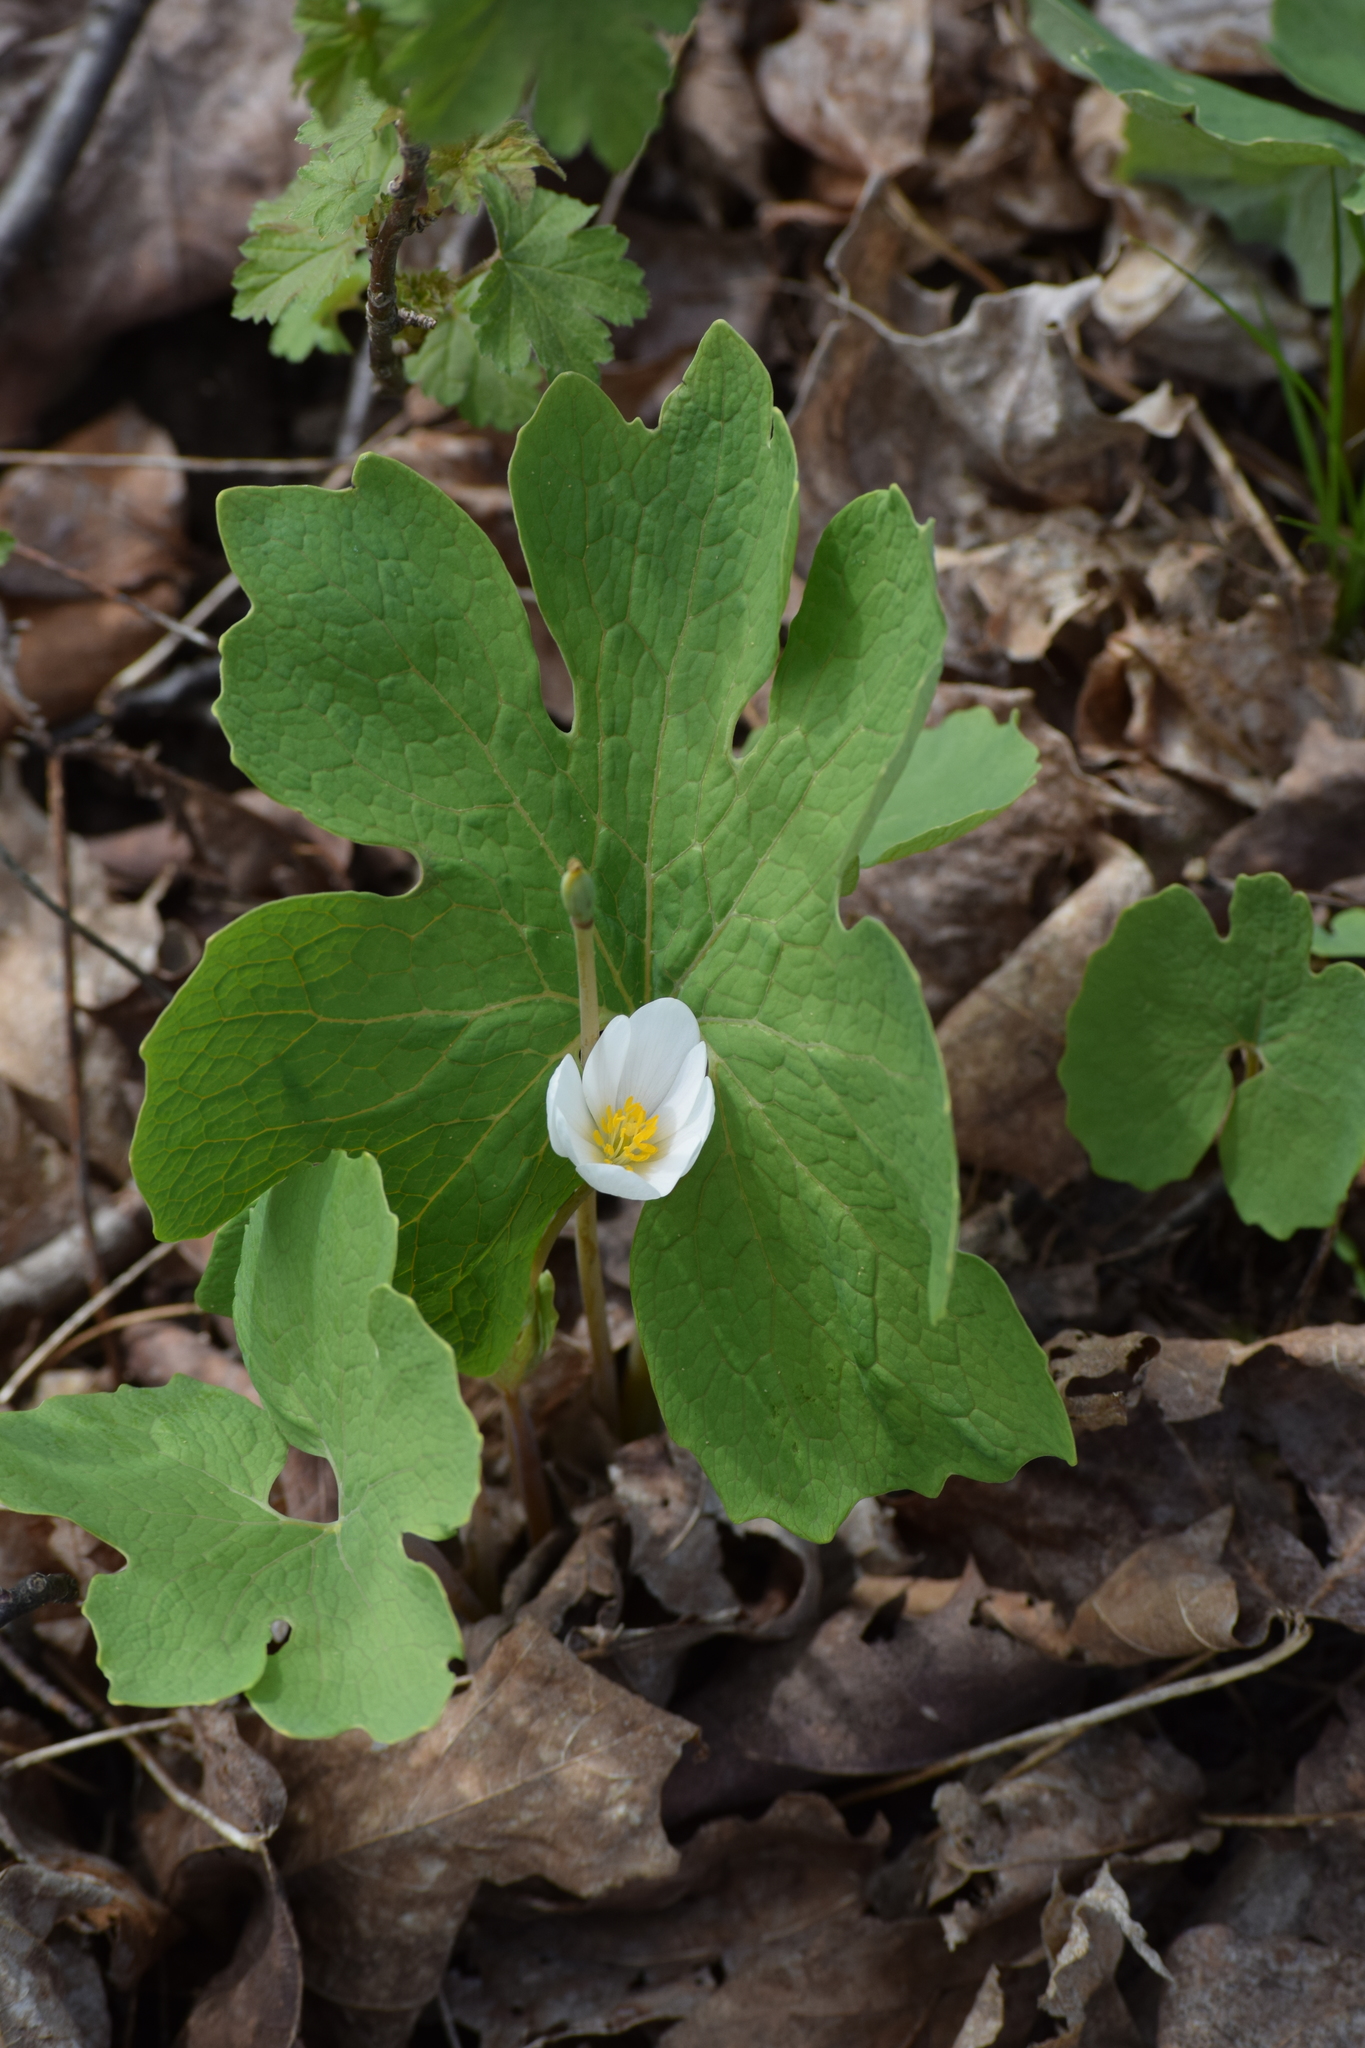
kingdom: Plantae
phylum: Tracheophyta
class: Magnoliopsida
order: Ranunculales
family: Papaveraceae
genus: Sanguinaria
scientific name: Sanguinaria canadensis
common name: Bloodroot
